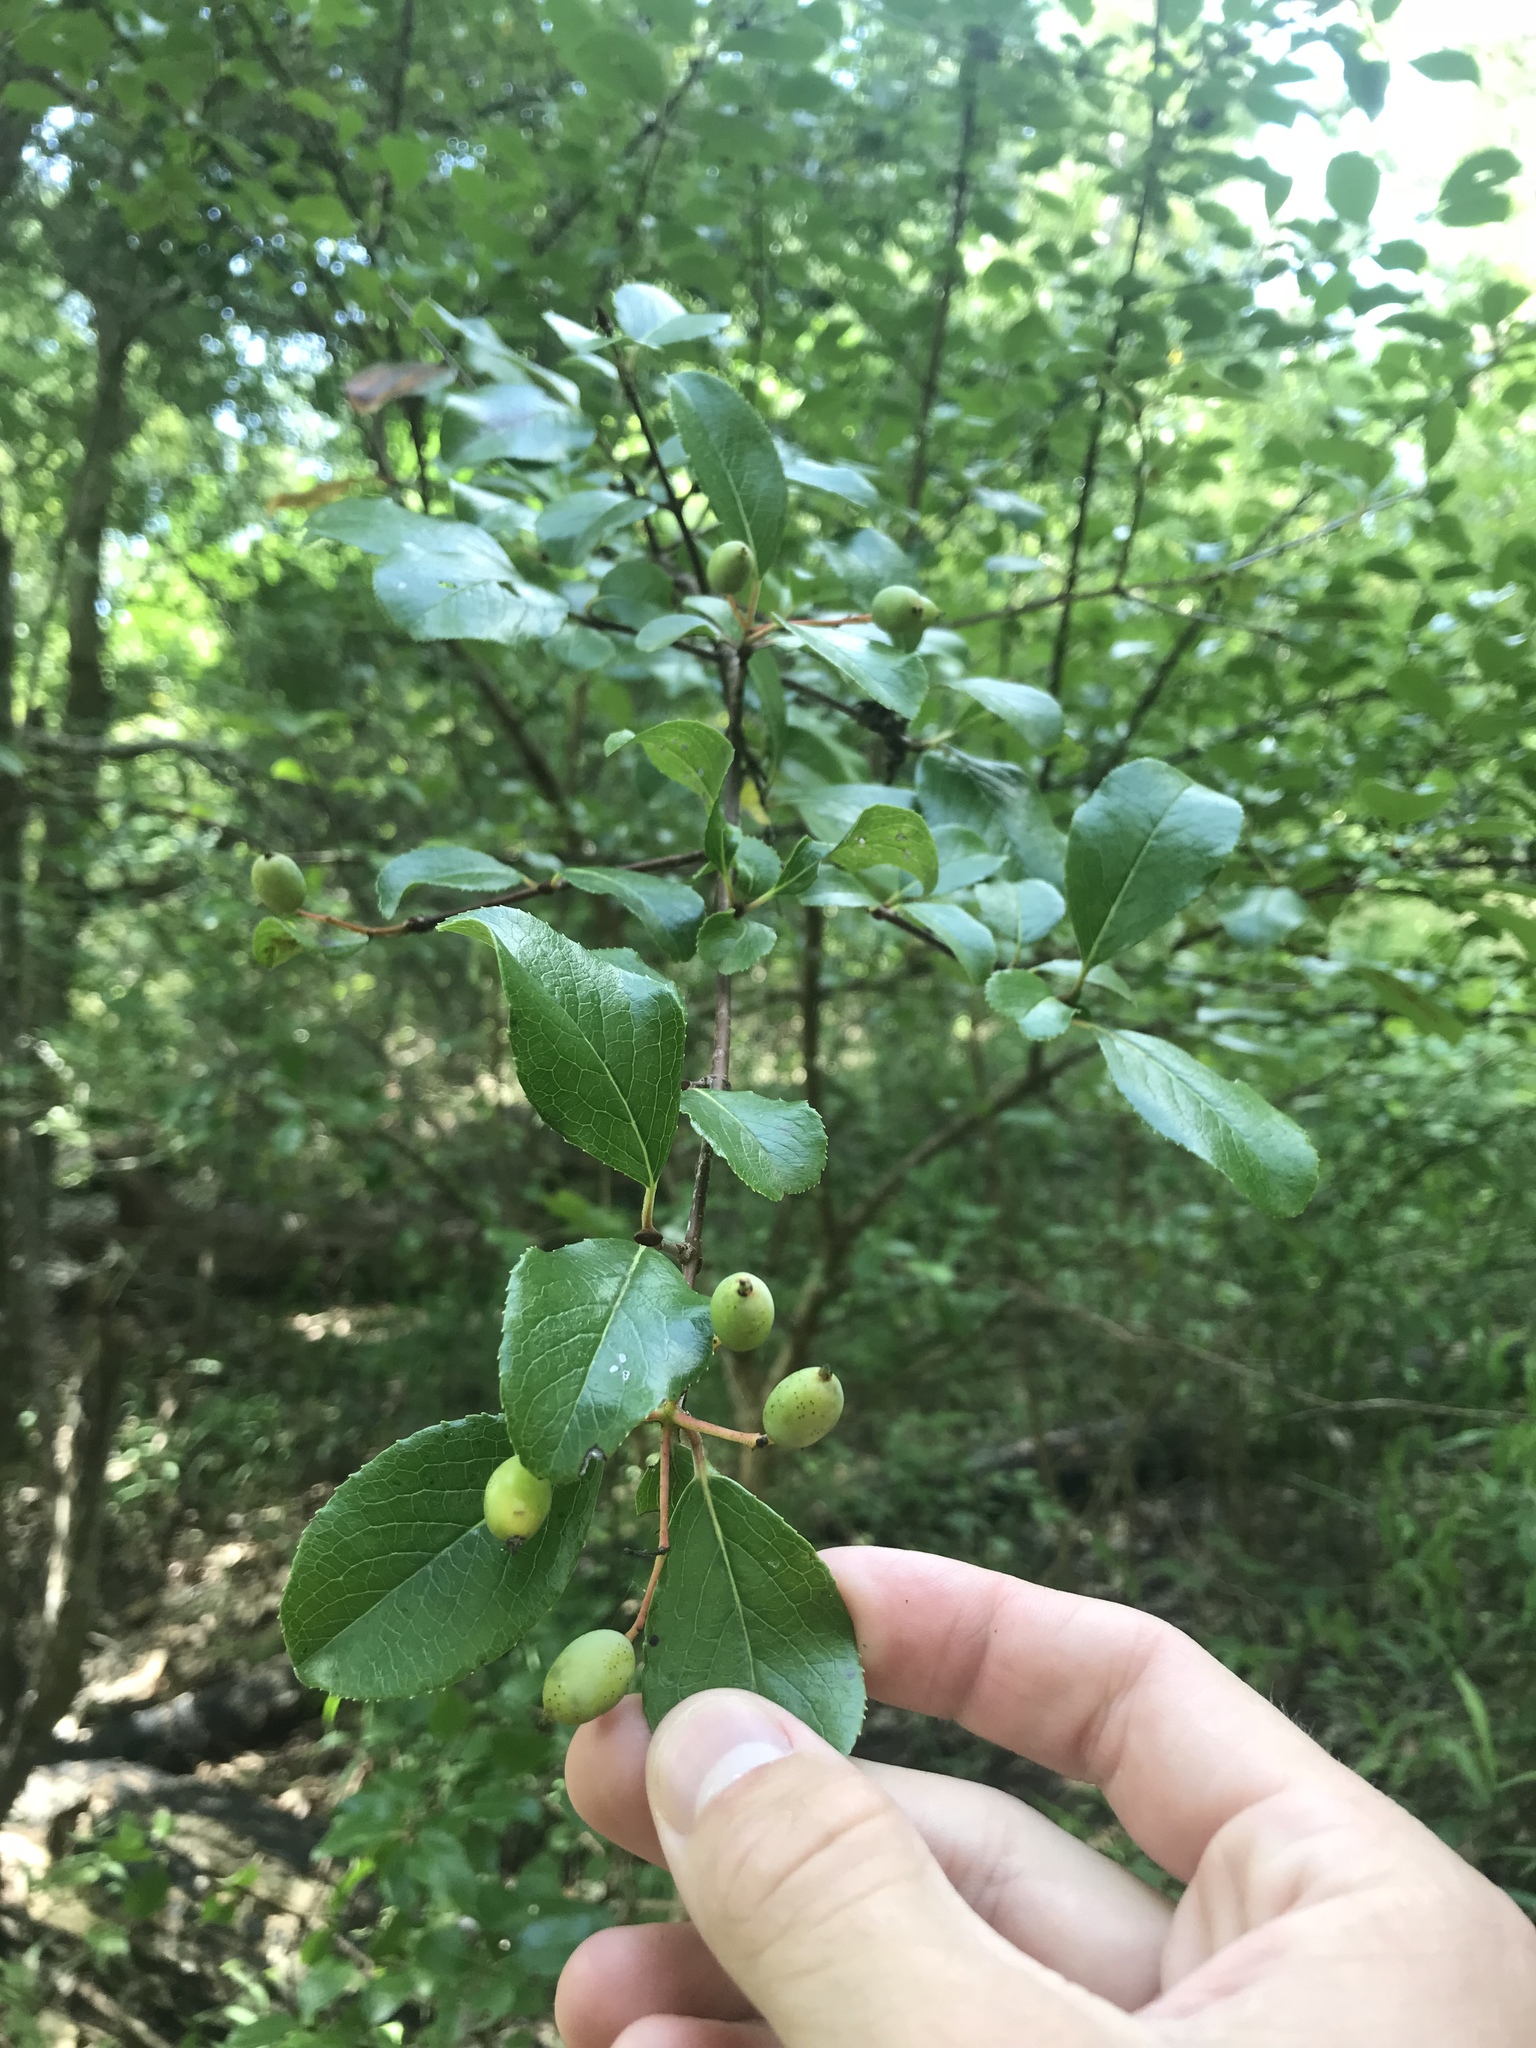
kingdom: Plantae
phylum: Tracheophyta
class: Magnoliopsida
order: Dipsacales
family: Viburnaceae
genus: Viburnum
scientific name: Viburnum rufidulum
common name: Blue haw
